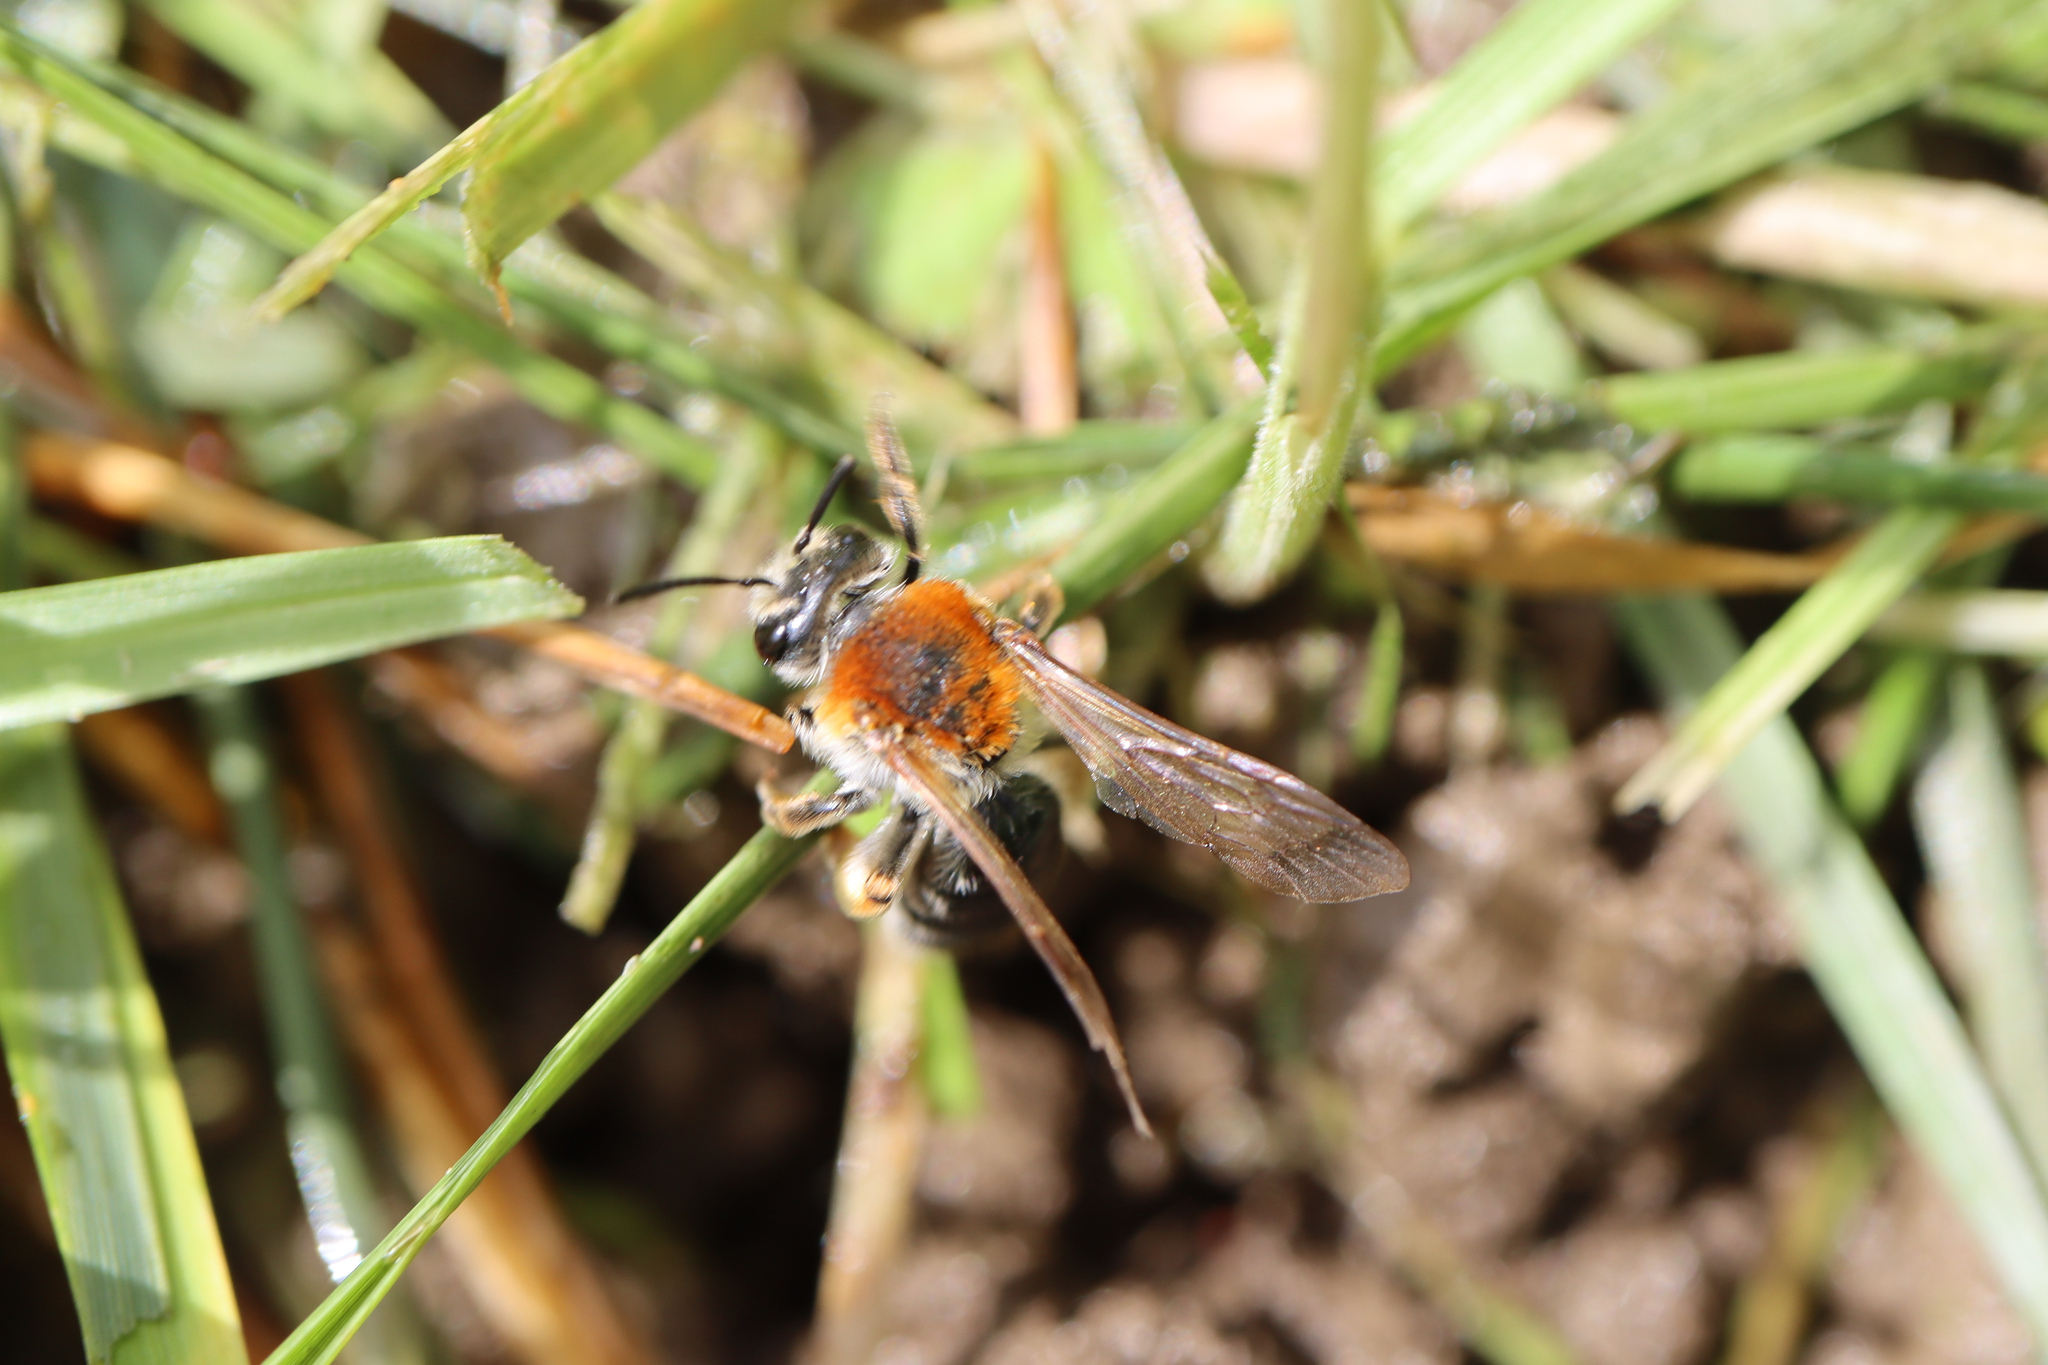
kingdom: Animalia
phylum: Arthropoda
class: Insecta
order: Hymenoptera
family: Andrenidae
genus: Andrena
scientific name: Andrena haemorrhoa
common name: Early mining bee
